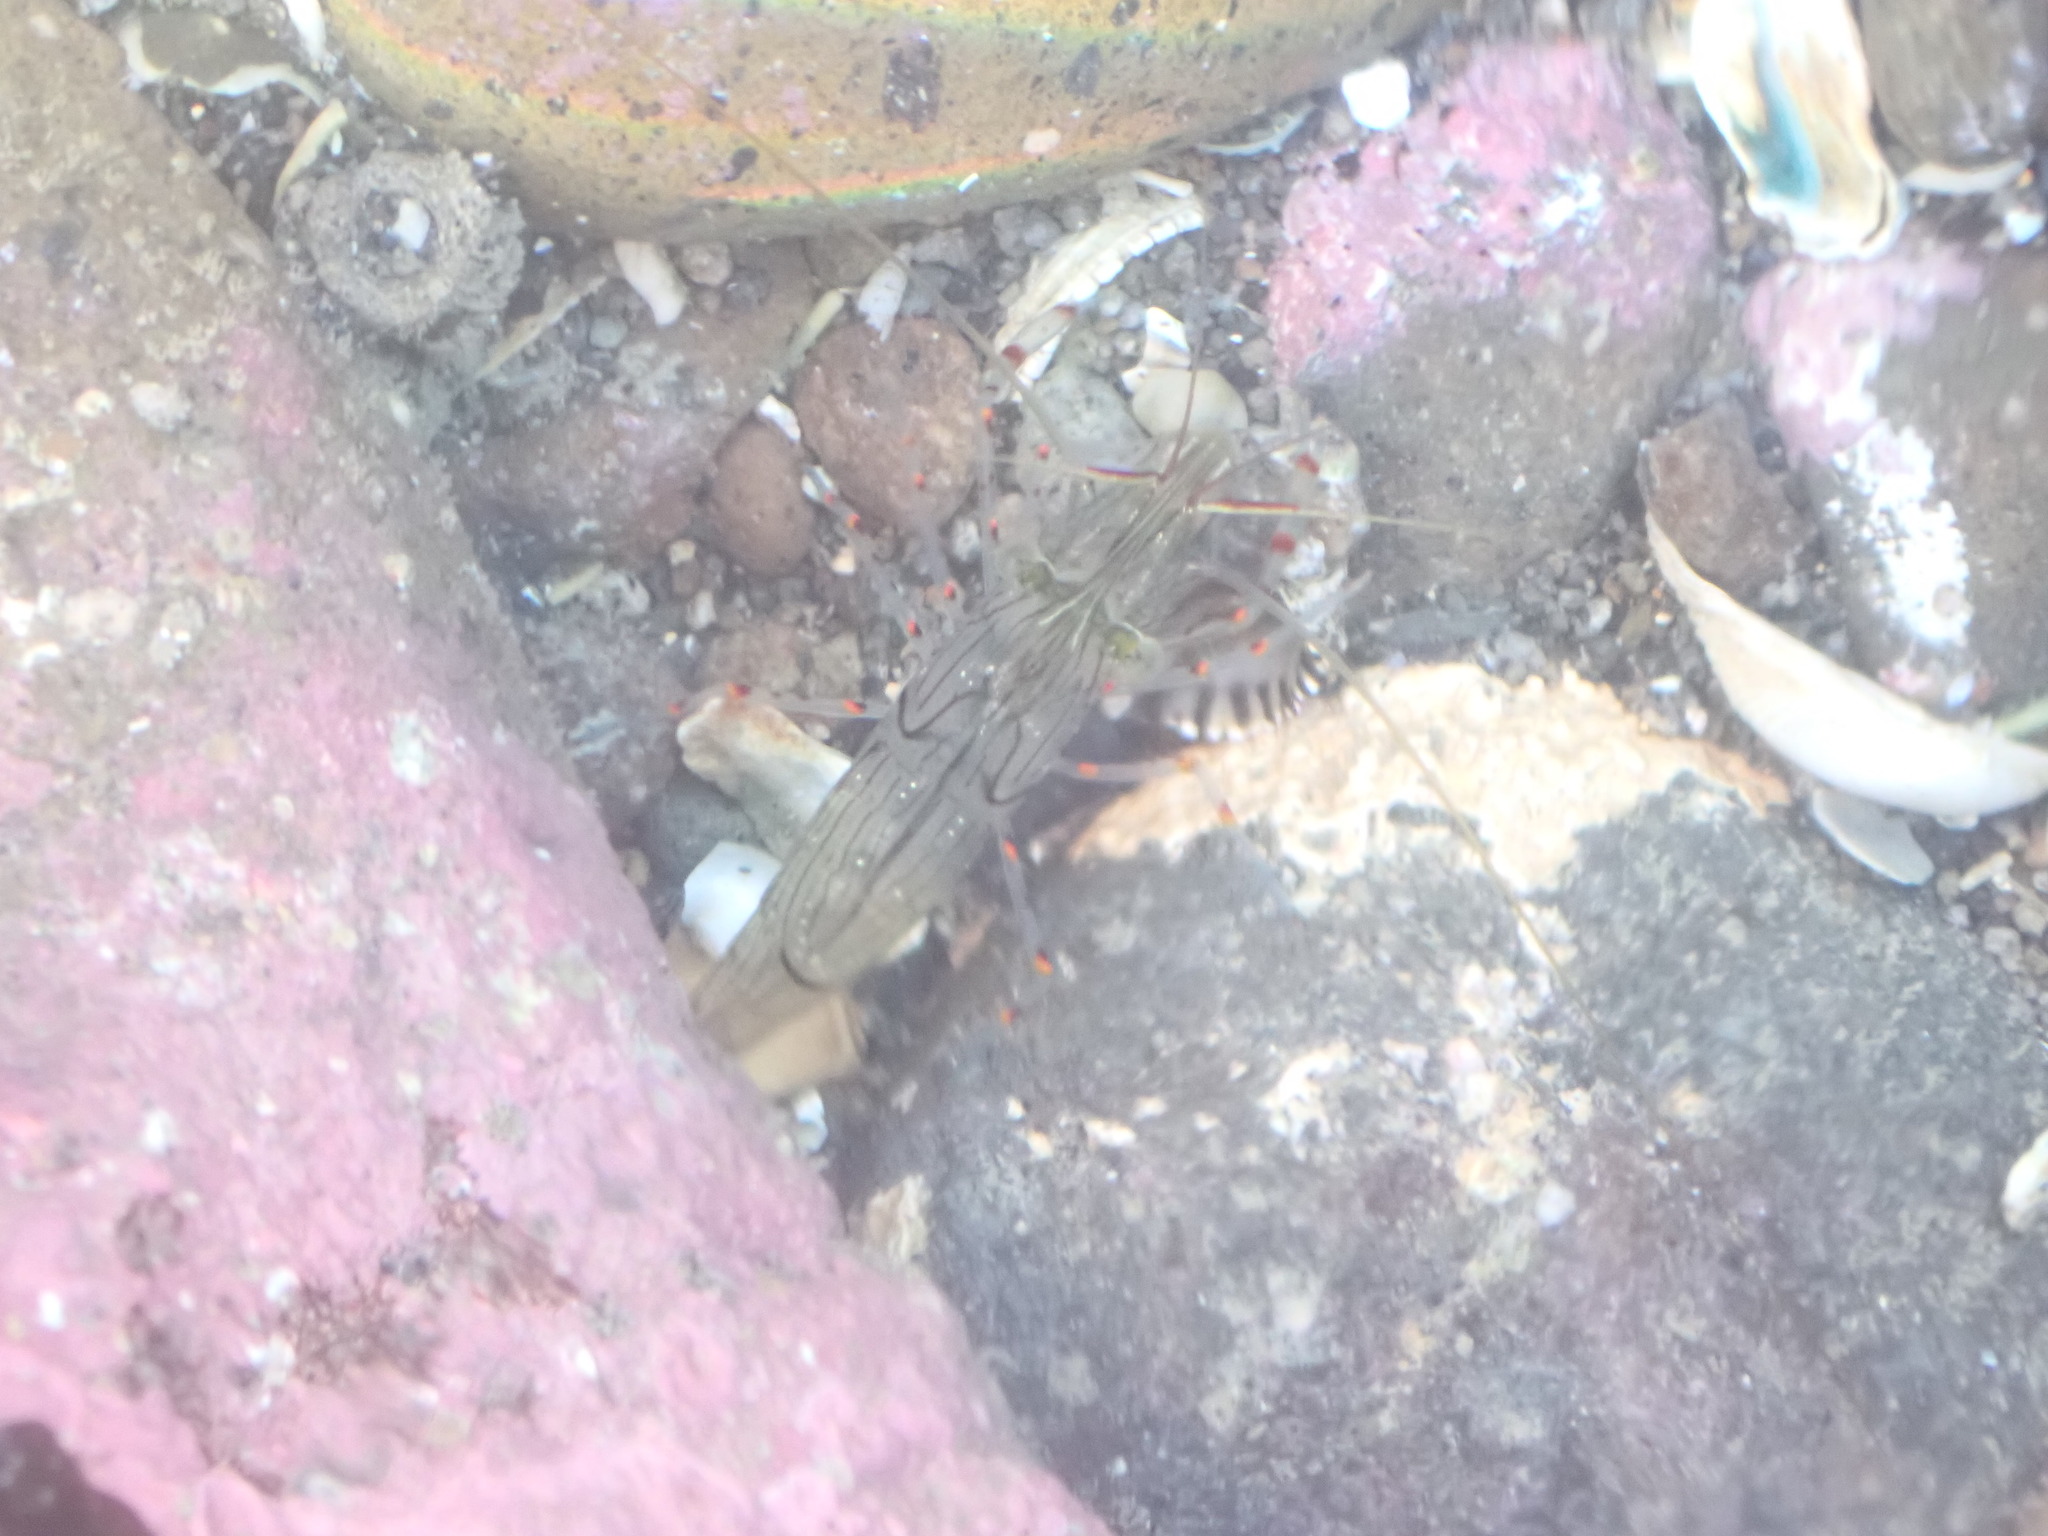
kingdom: Animalia
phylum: Arthropoda
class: Malacostraca
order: Decapoda
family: Palaemonidae
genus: Palaemon
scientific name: Palaemon affinis
